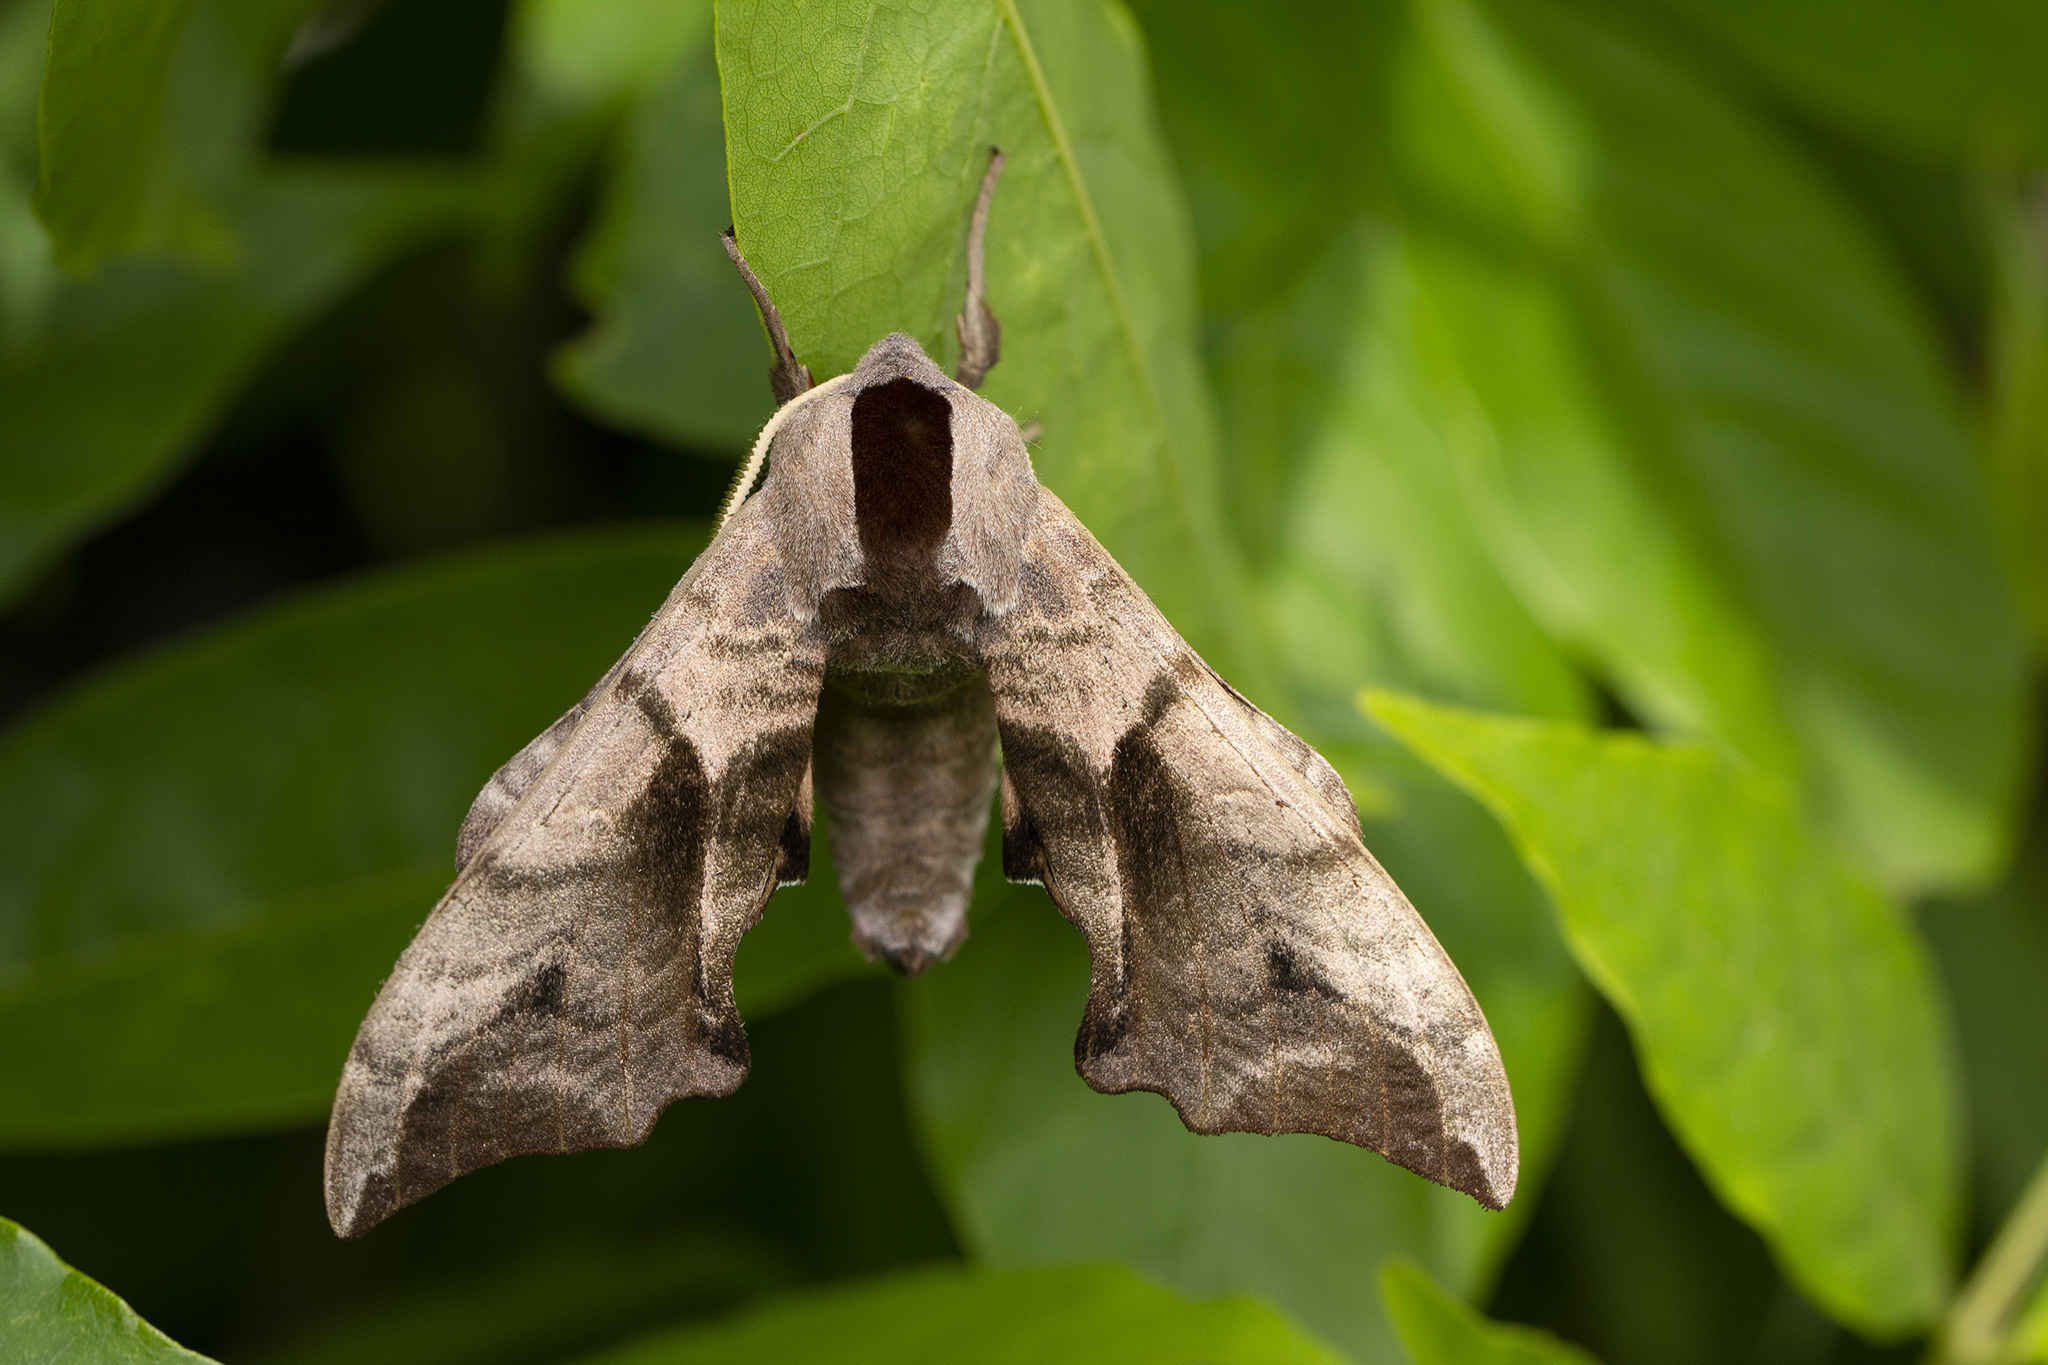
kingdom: Animalia
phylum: Arthropoda
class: Insecta
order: Lepidoptera
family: Sphingidae
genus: Smerinthus
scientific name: Smerinthus ocellata
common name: Eyed hawk-moth
